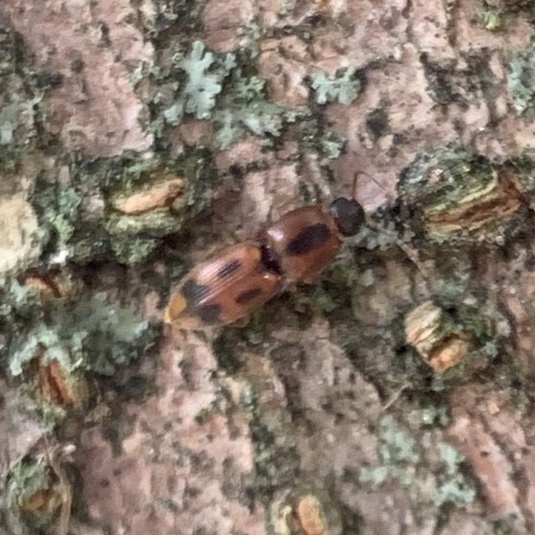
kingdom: Animalia
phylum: Arthropoda
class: Insecta
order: Coleoptera
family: Elateridae
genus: Aeolus
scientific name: Aeolus mellillus
